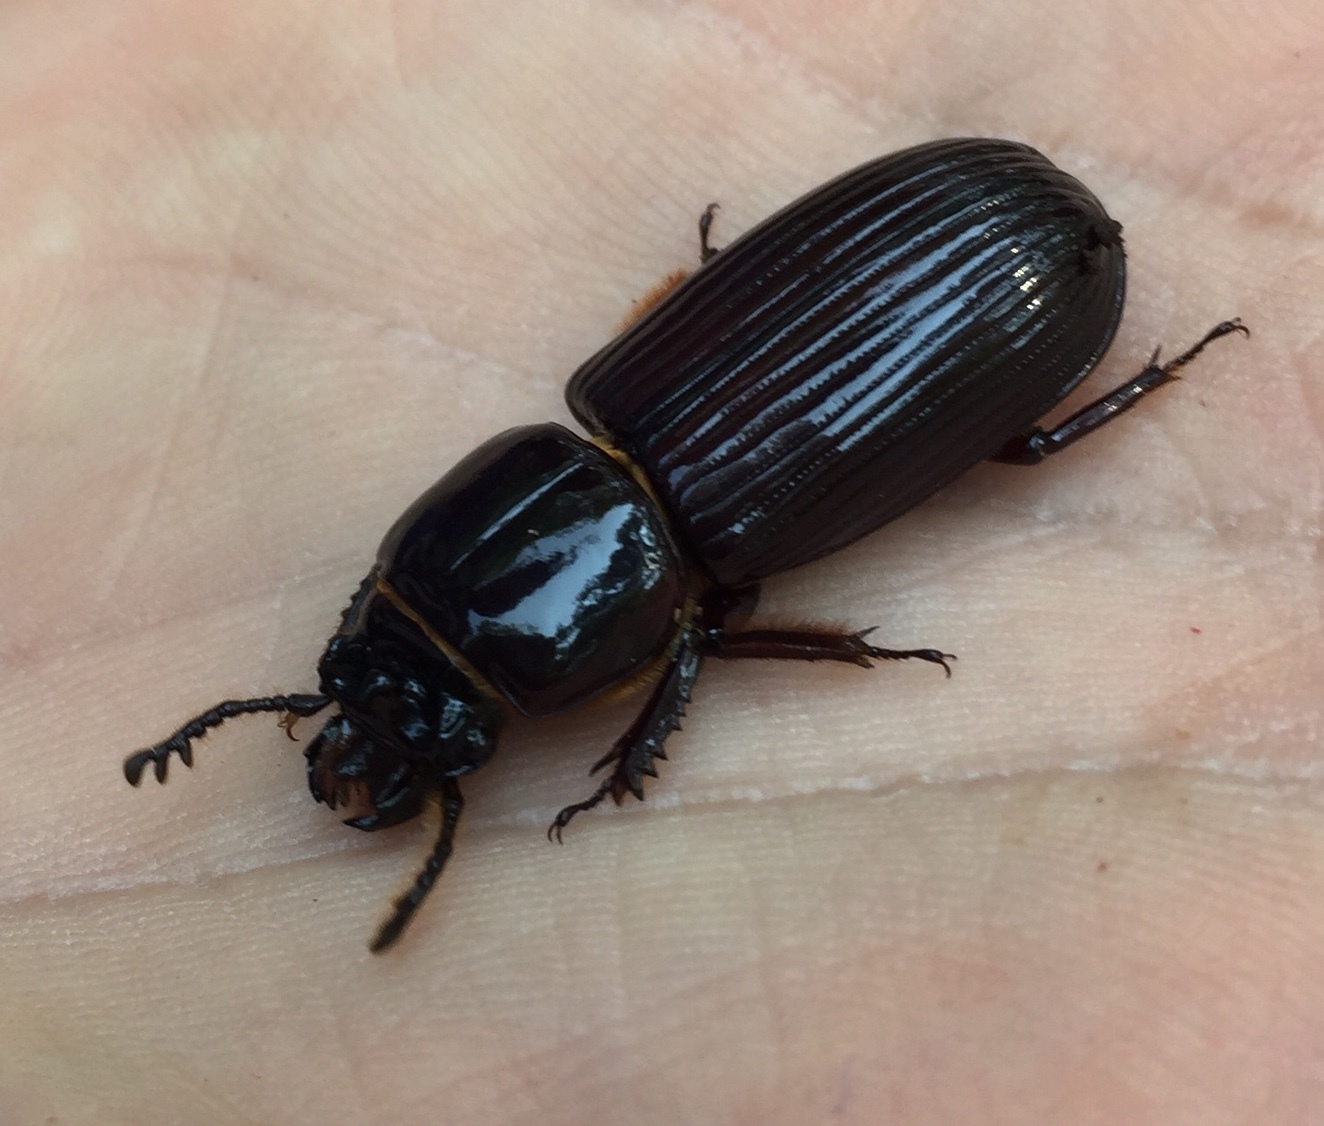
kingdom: Animalia
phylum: Arthropoda
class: Insecta
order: Coleoptera
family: Passalidae
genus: Odontotaenius
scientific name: Odontotaenius disjunctus
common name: Patent leather beetle
